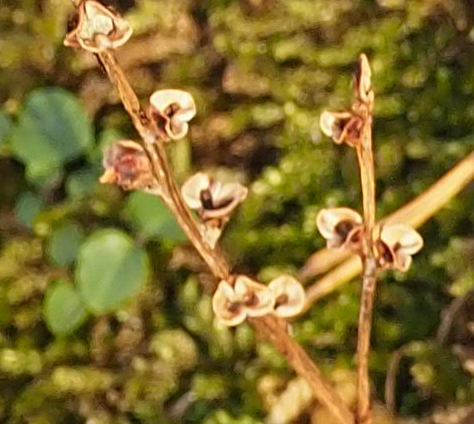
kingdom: Plantae
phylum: Tracheophyta
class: Magnoliopsida
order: Lamiales
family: Orobanchaceae
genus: Epifagus
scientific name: Epifagus virginiana
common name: Beechdrops
